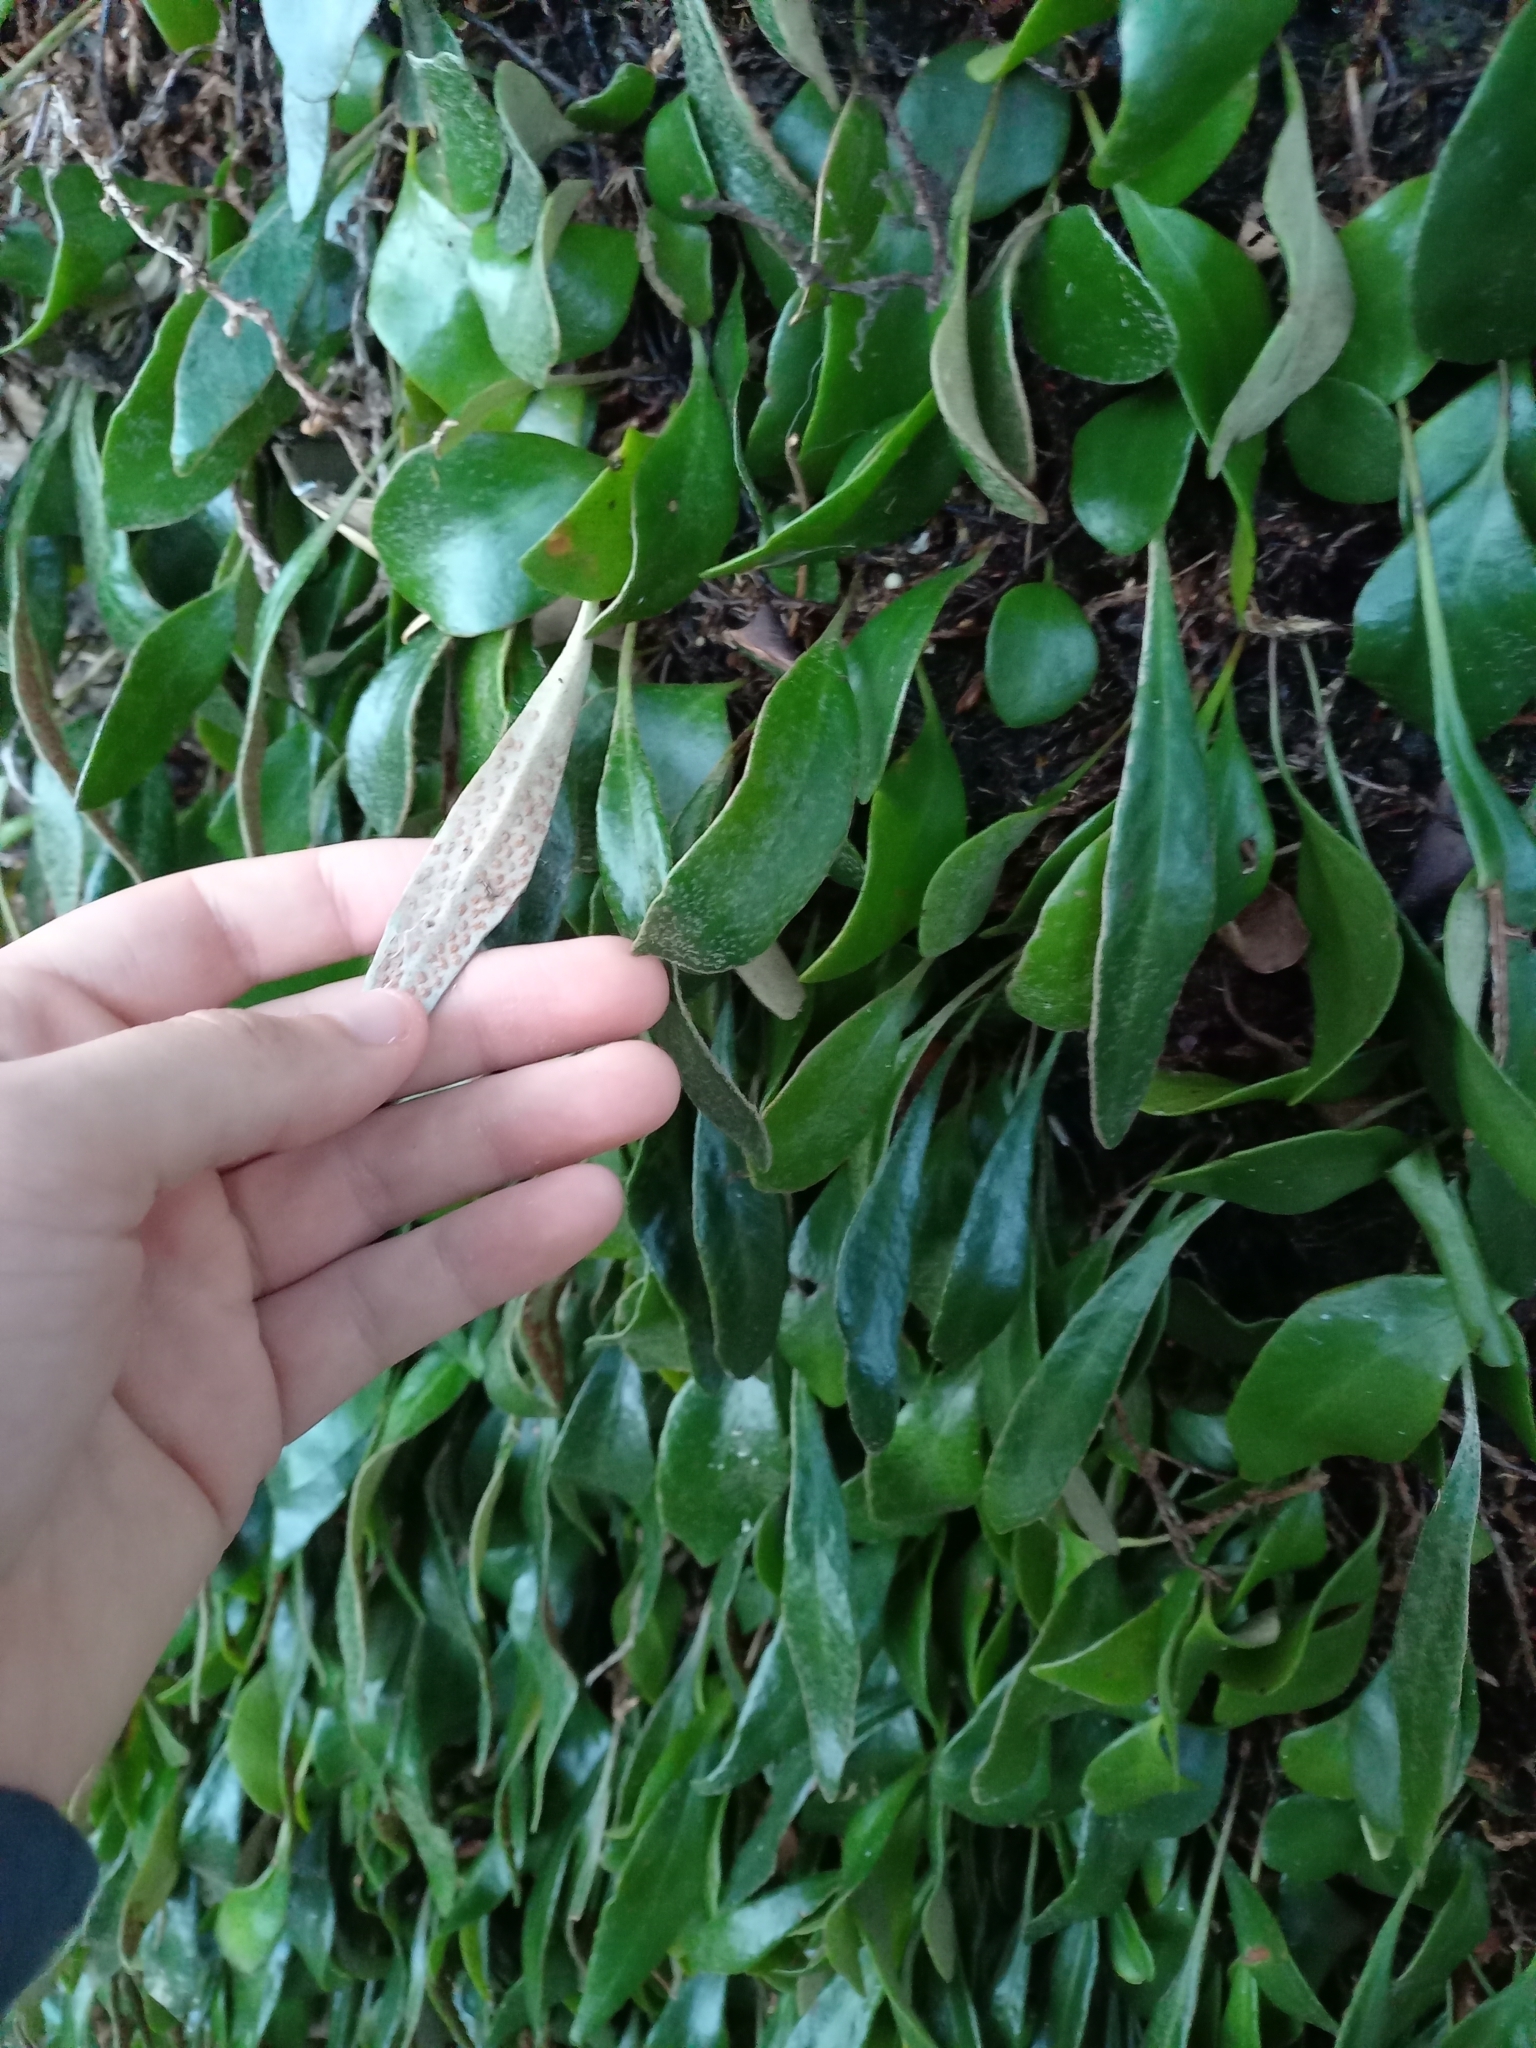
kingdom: Plantae
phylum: Tracheophyta
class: Polypodiopsida
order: Polypodiales
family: Polypodiaceae
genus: Pyrrosia
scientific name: Pyrrosia eleagnifolia
